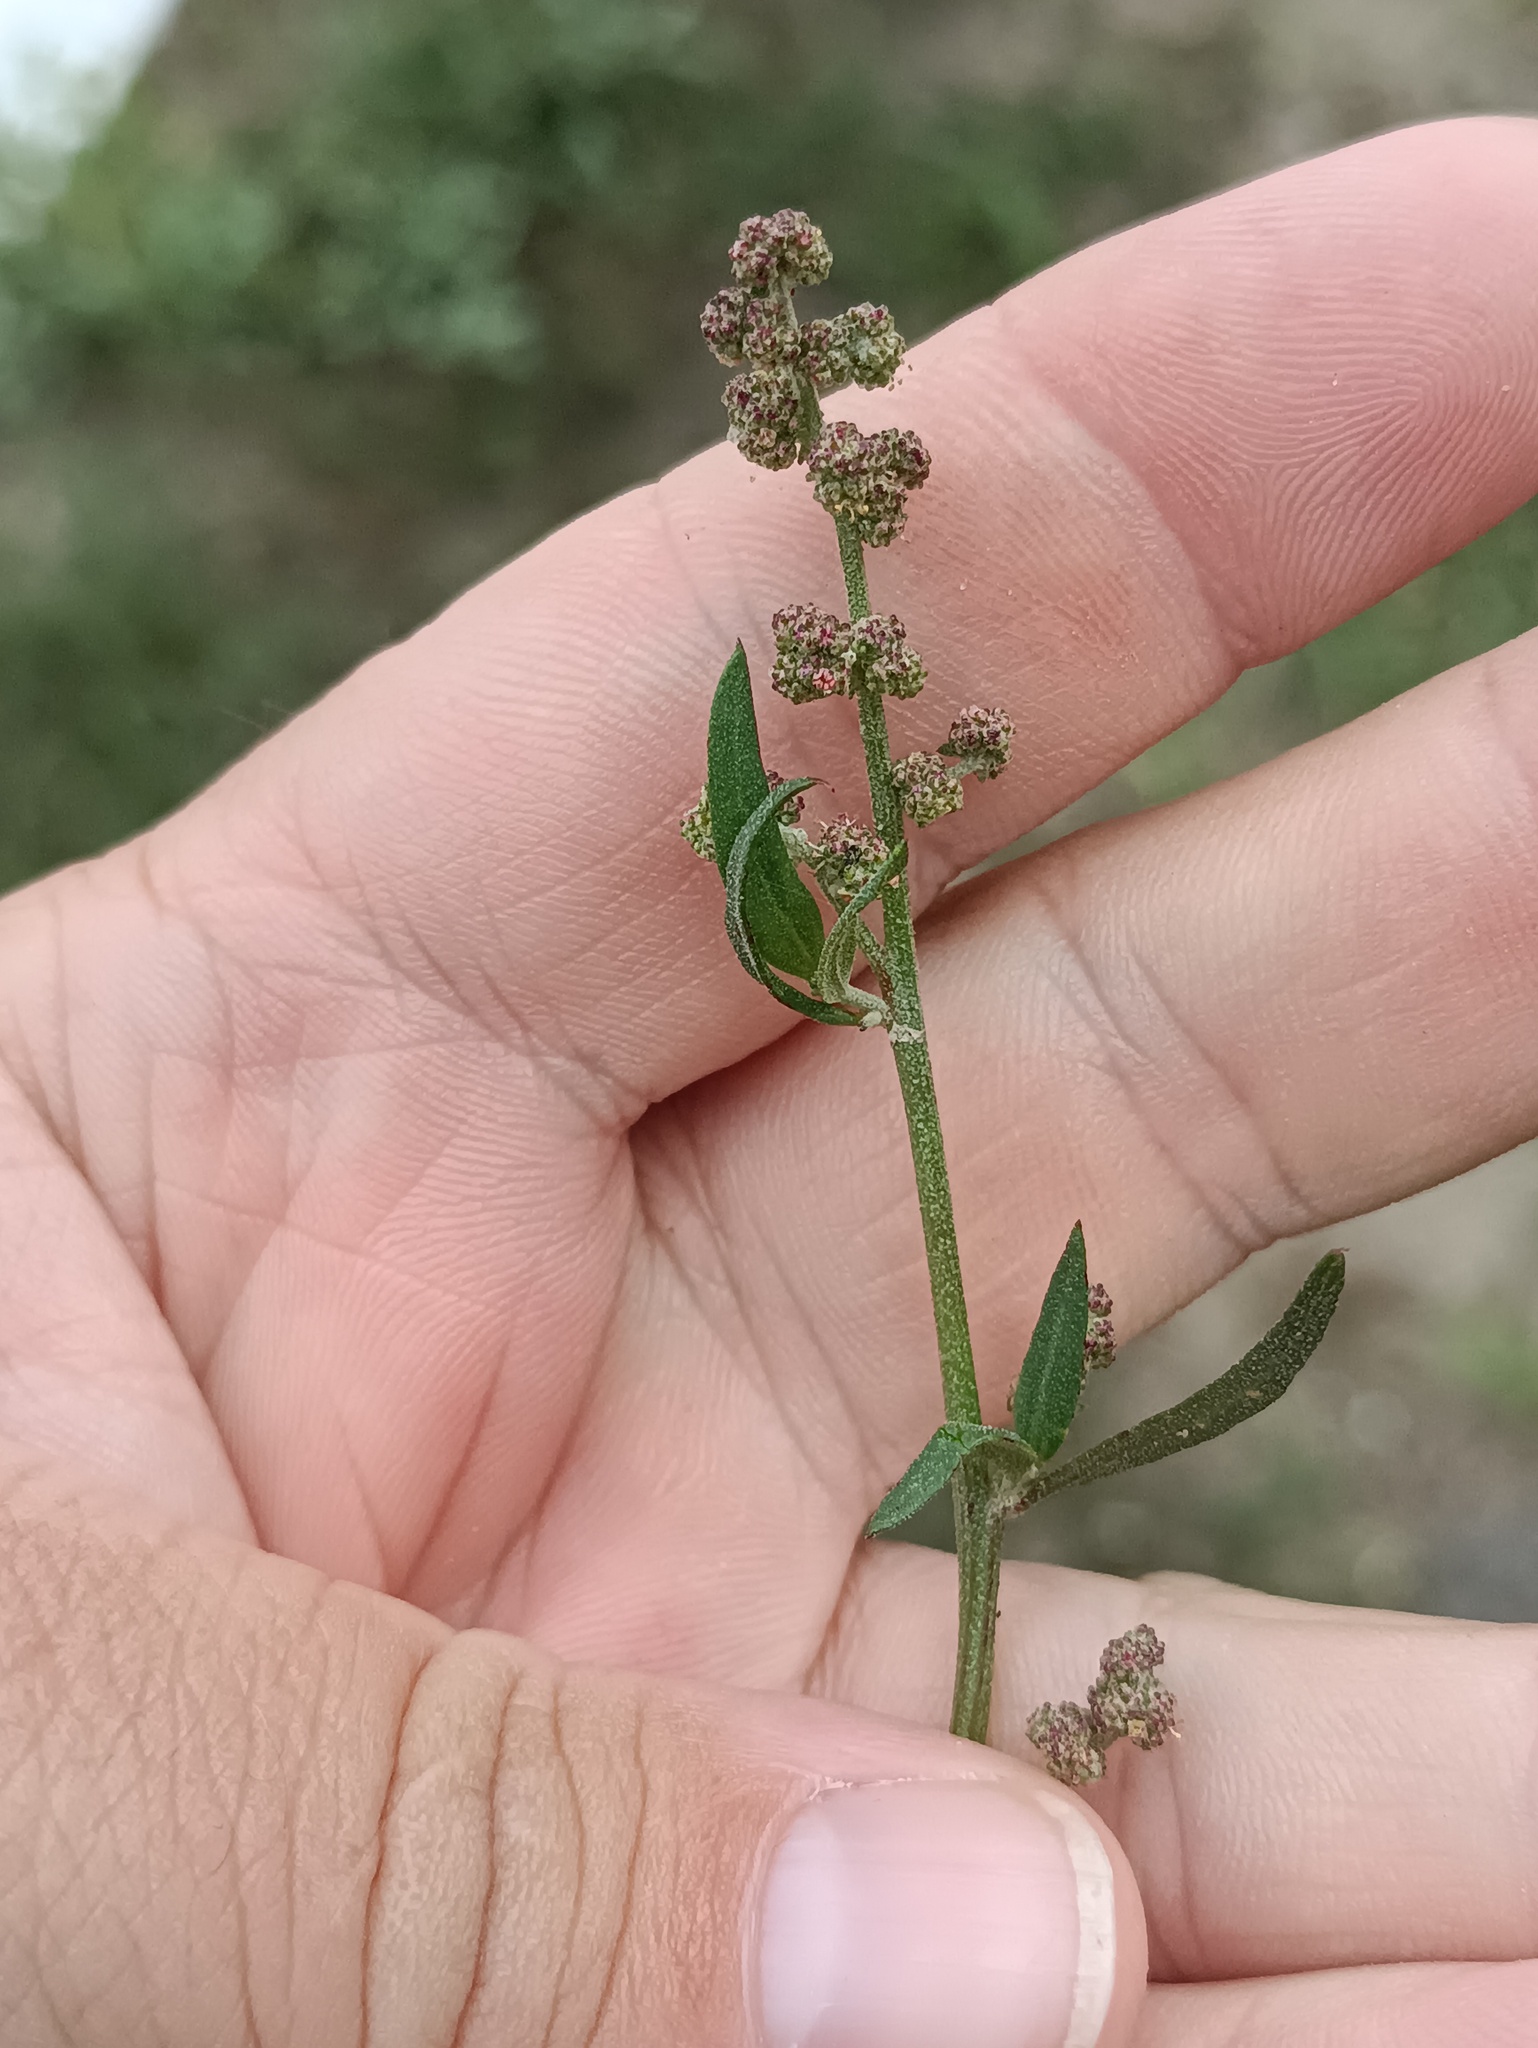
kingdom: Plantae
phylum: Tracheophyta
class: Magnoliopsida
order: Caryophyllales
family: Amaranthaceae
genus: Atriplex
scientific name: Atriplex patula
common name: Common orache
